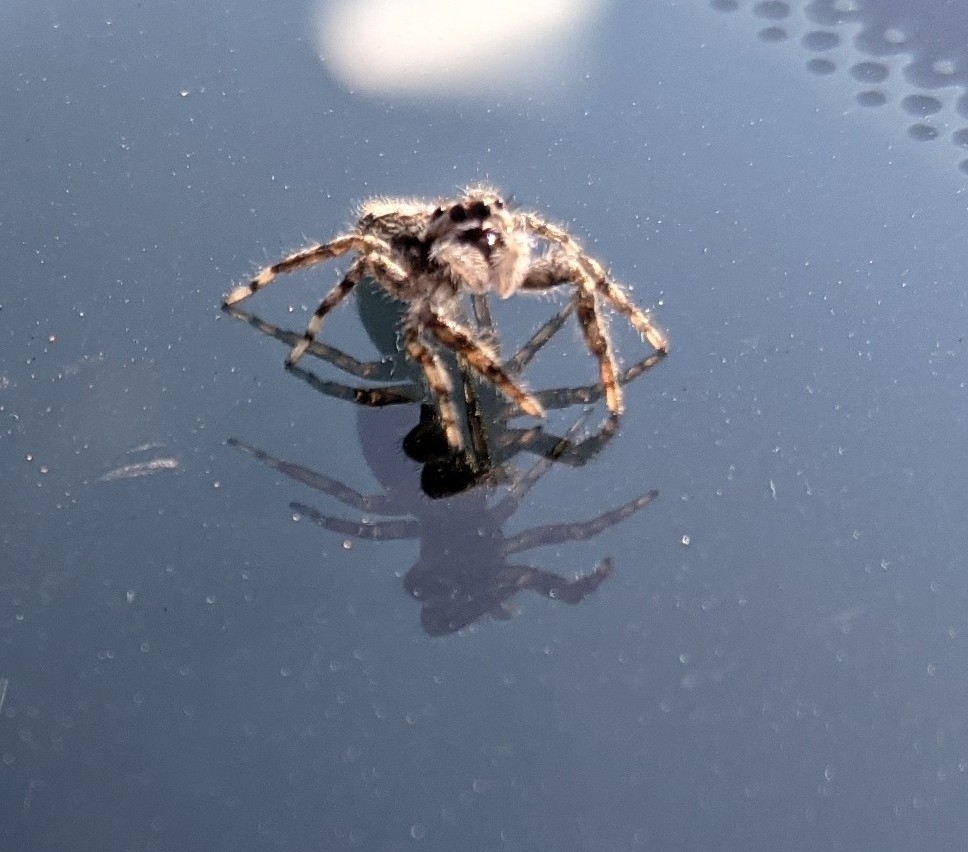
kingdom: Animalia
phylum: Arthropoda
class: Arachnida
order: Araneae
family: Salticidae
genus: Platycryptus
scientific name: Platycryptus undatus
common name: Tan jumping spider
